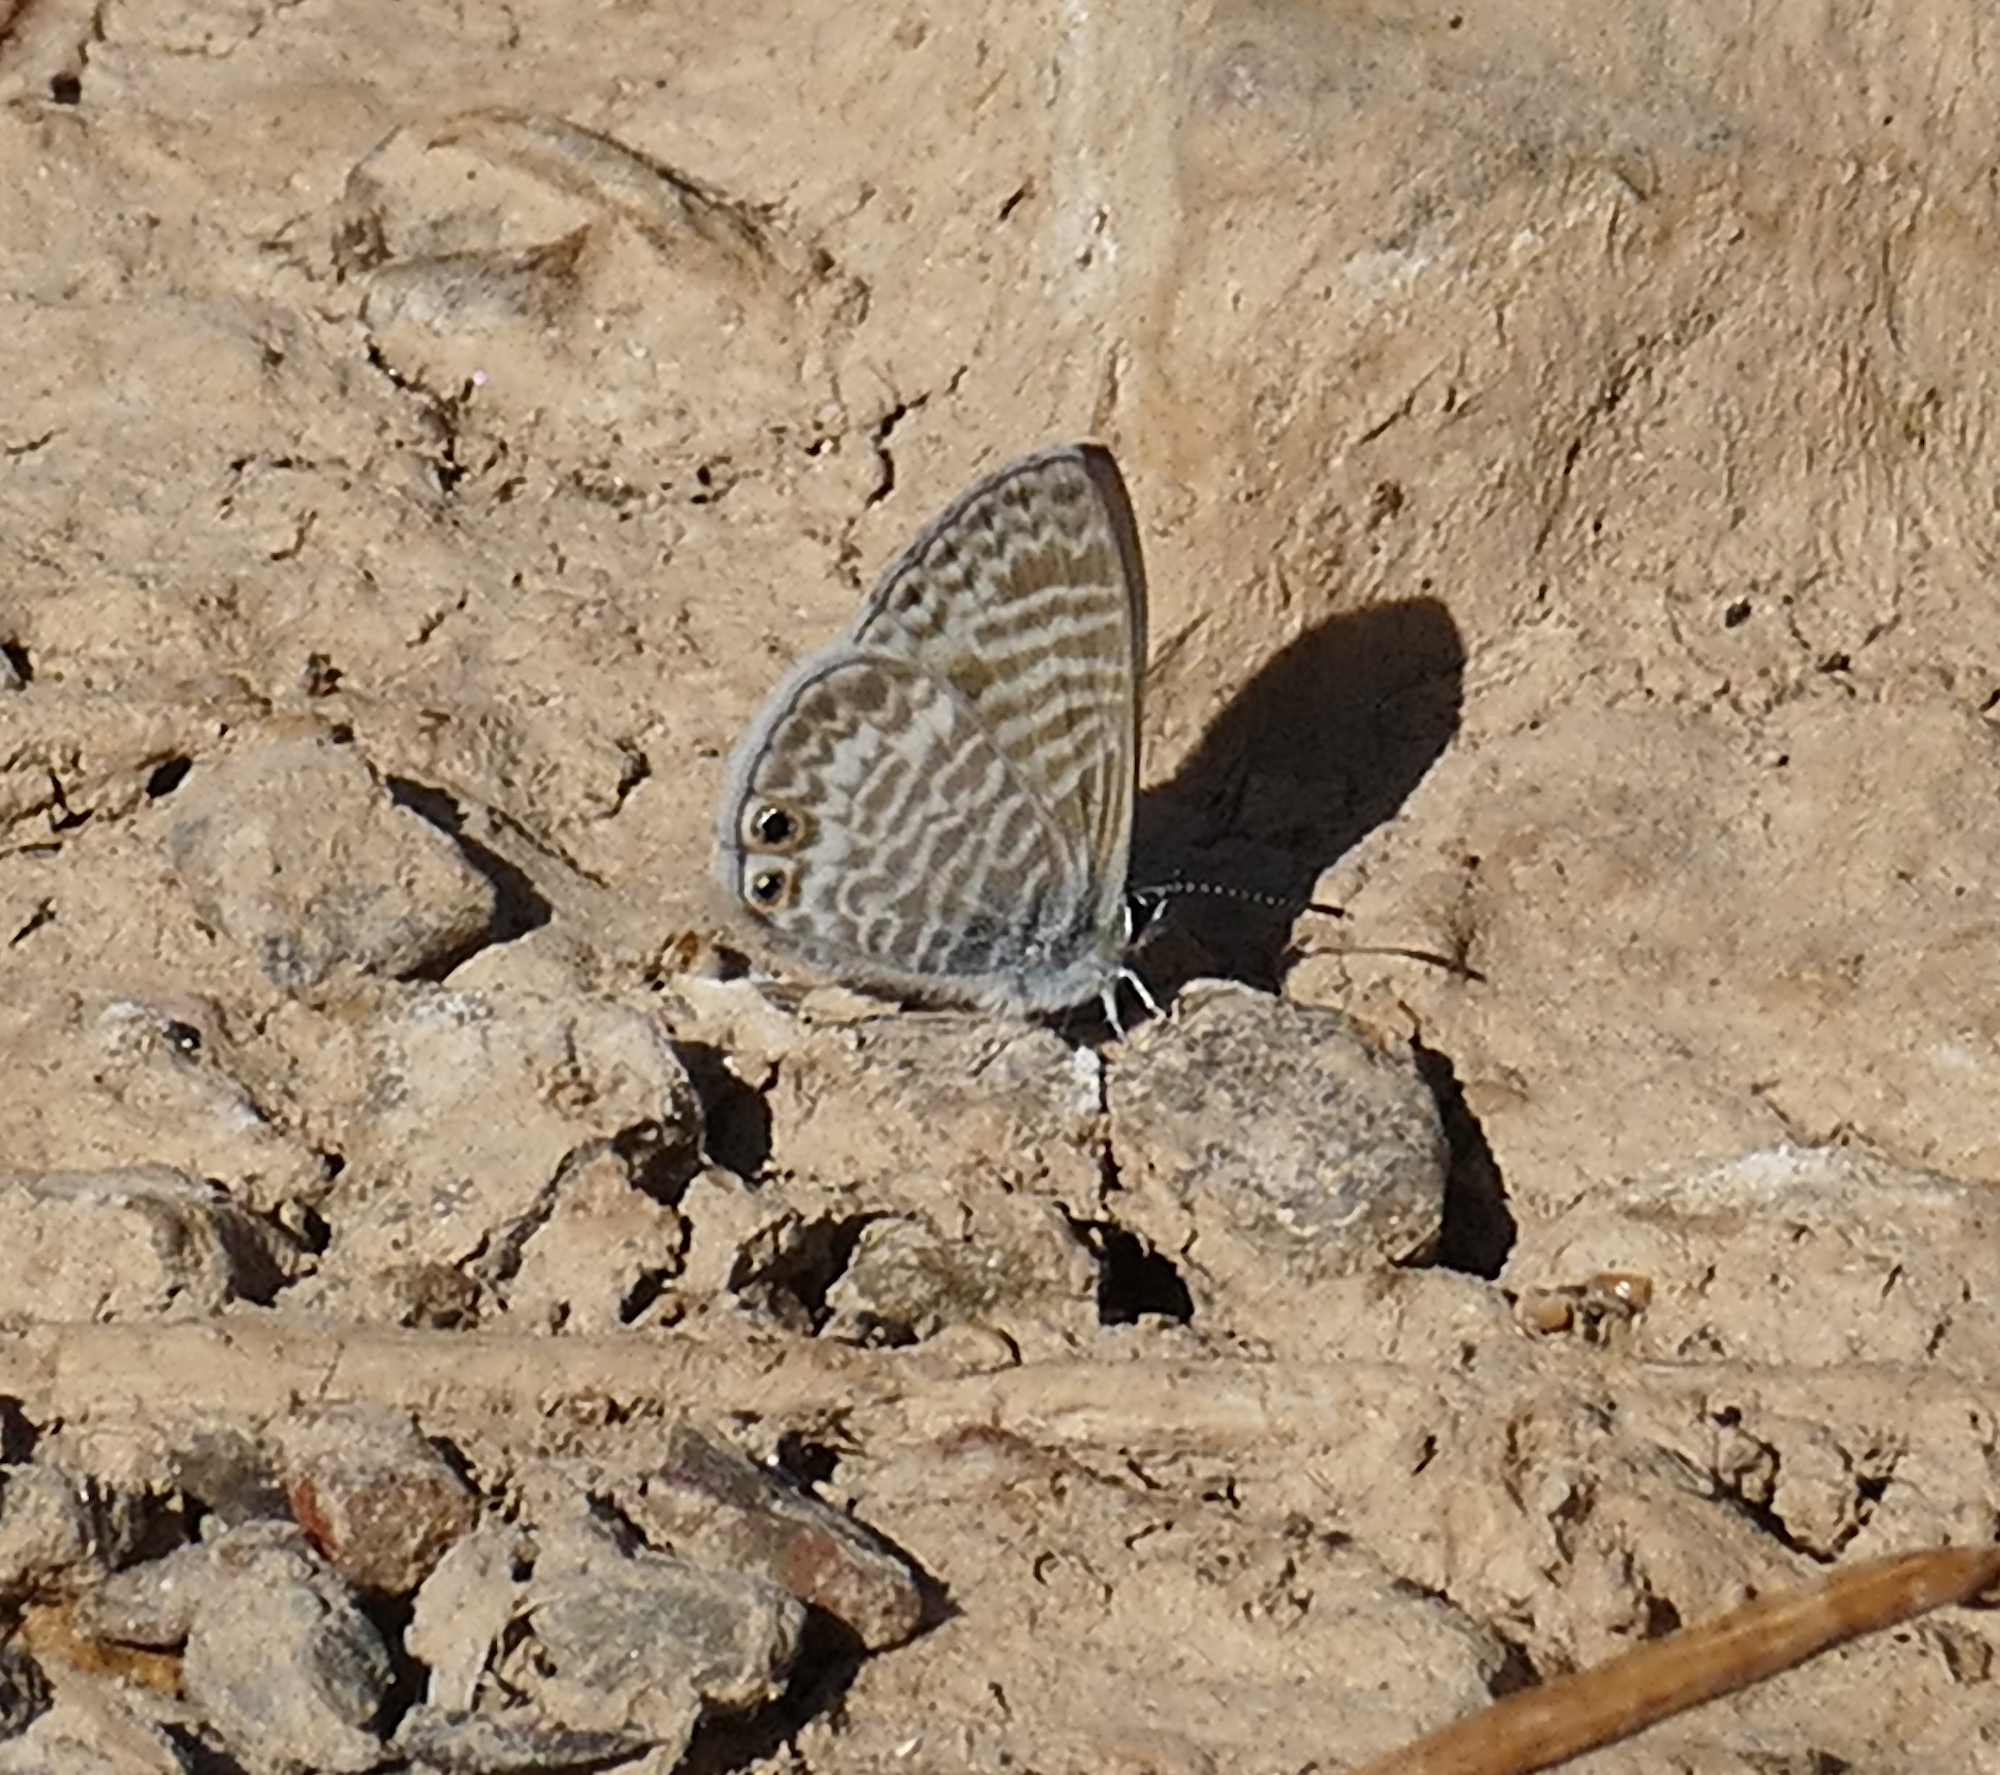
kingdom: Animalia
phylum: Arthropoda
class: Insecta
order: Lepidoptera
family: Lycaenidae
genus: Leptotes
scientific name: Leptotes marina
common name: Marine blue
